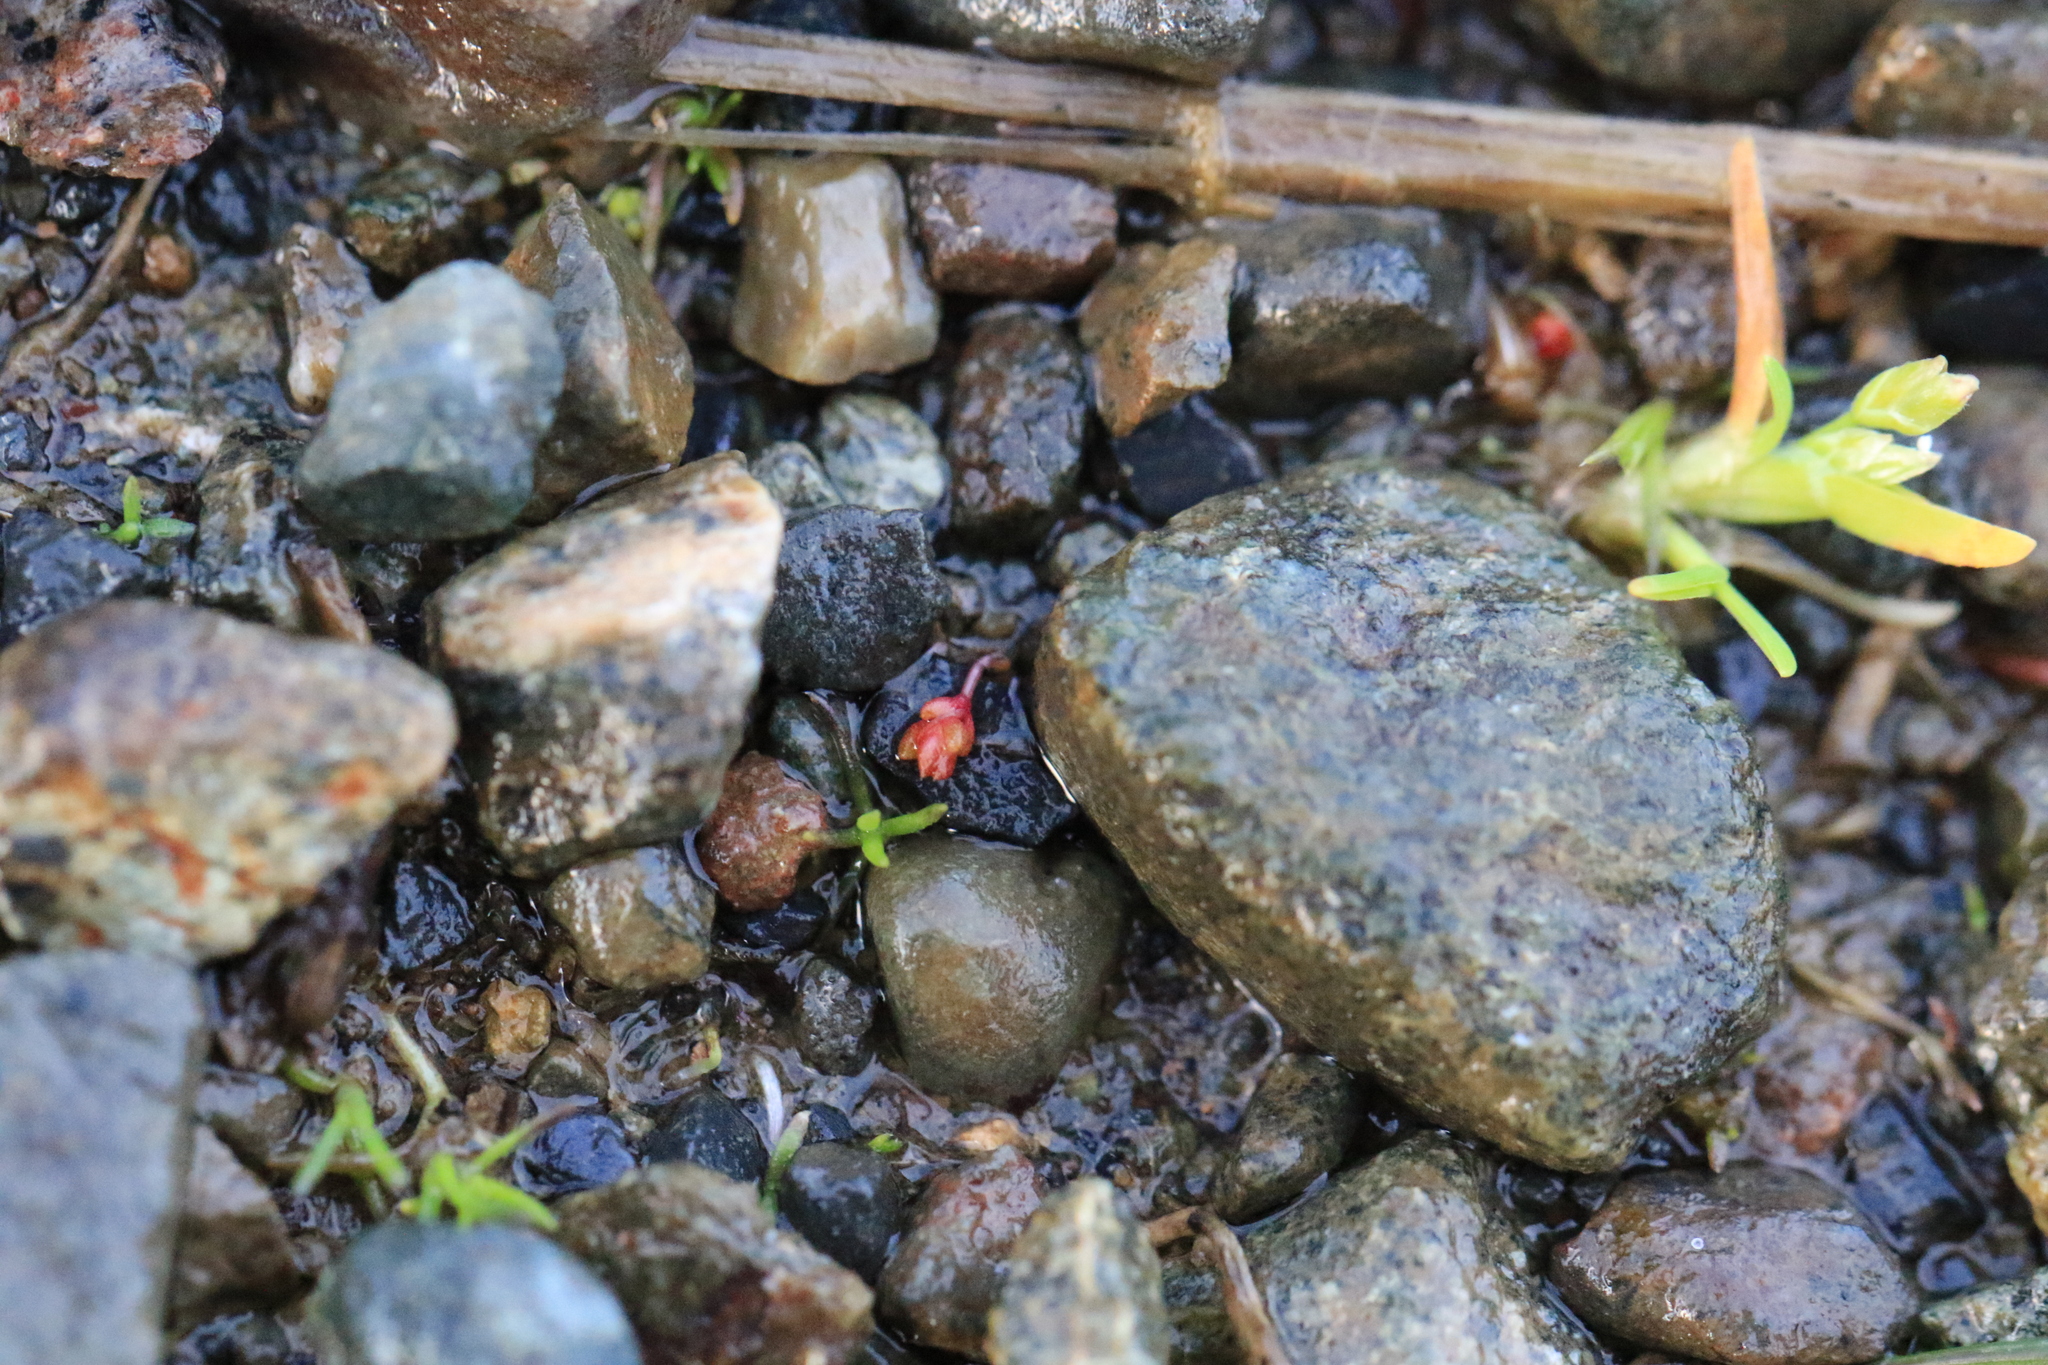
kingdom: Plantae
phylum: Tracheophyta
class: Magnoliopsida
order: Saxifragales
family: Crassulaceae
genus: Crassula
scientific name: Crassula tillaea
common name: Mossy stonecrop
